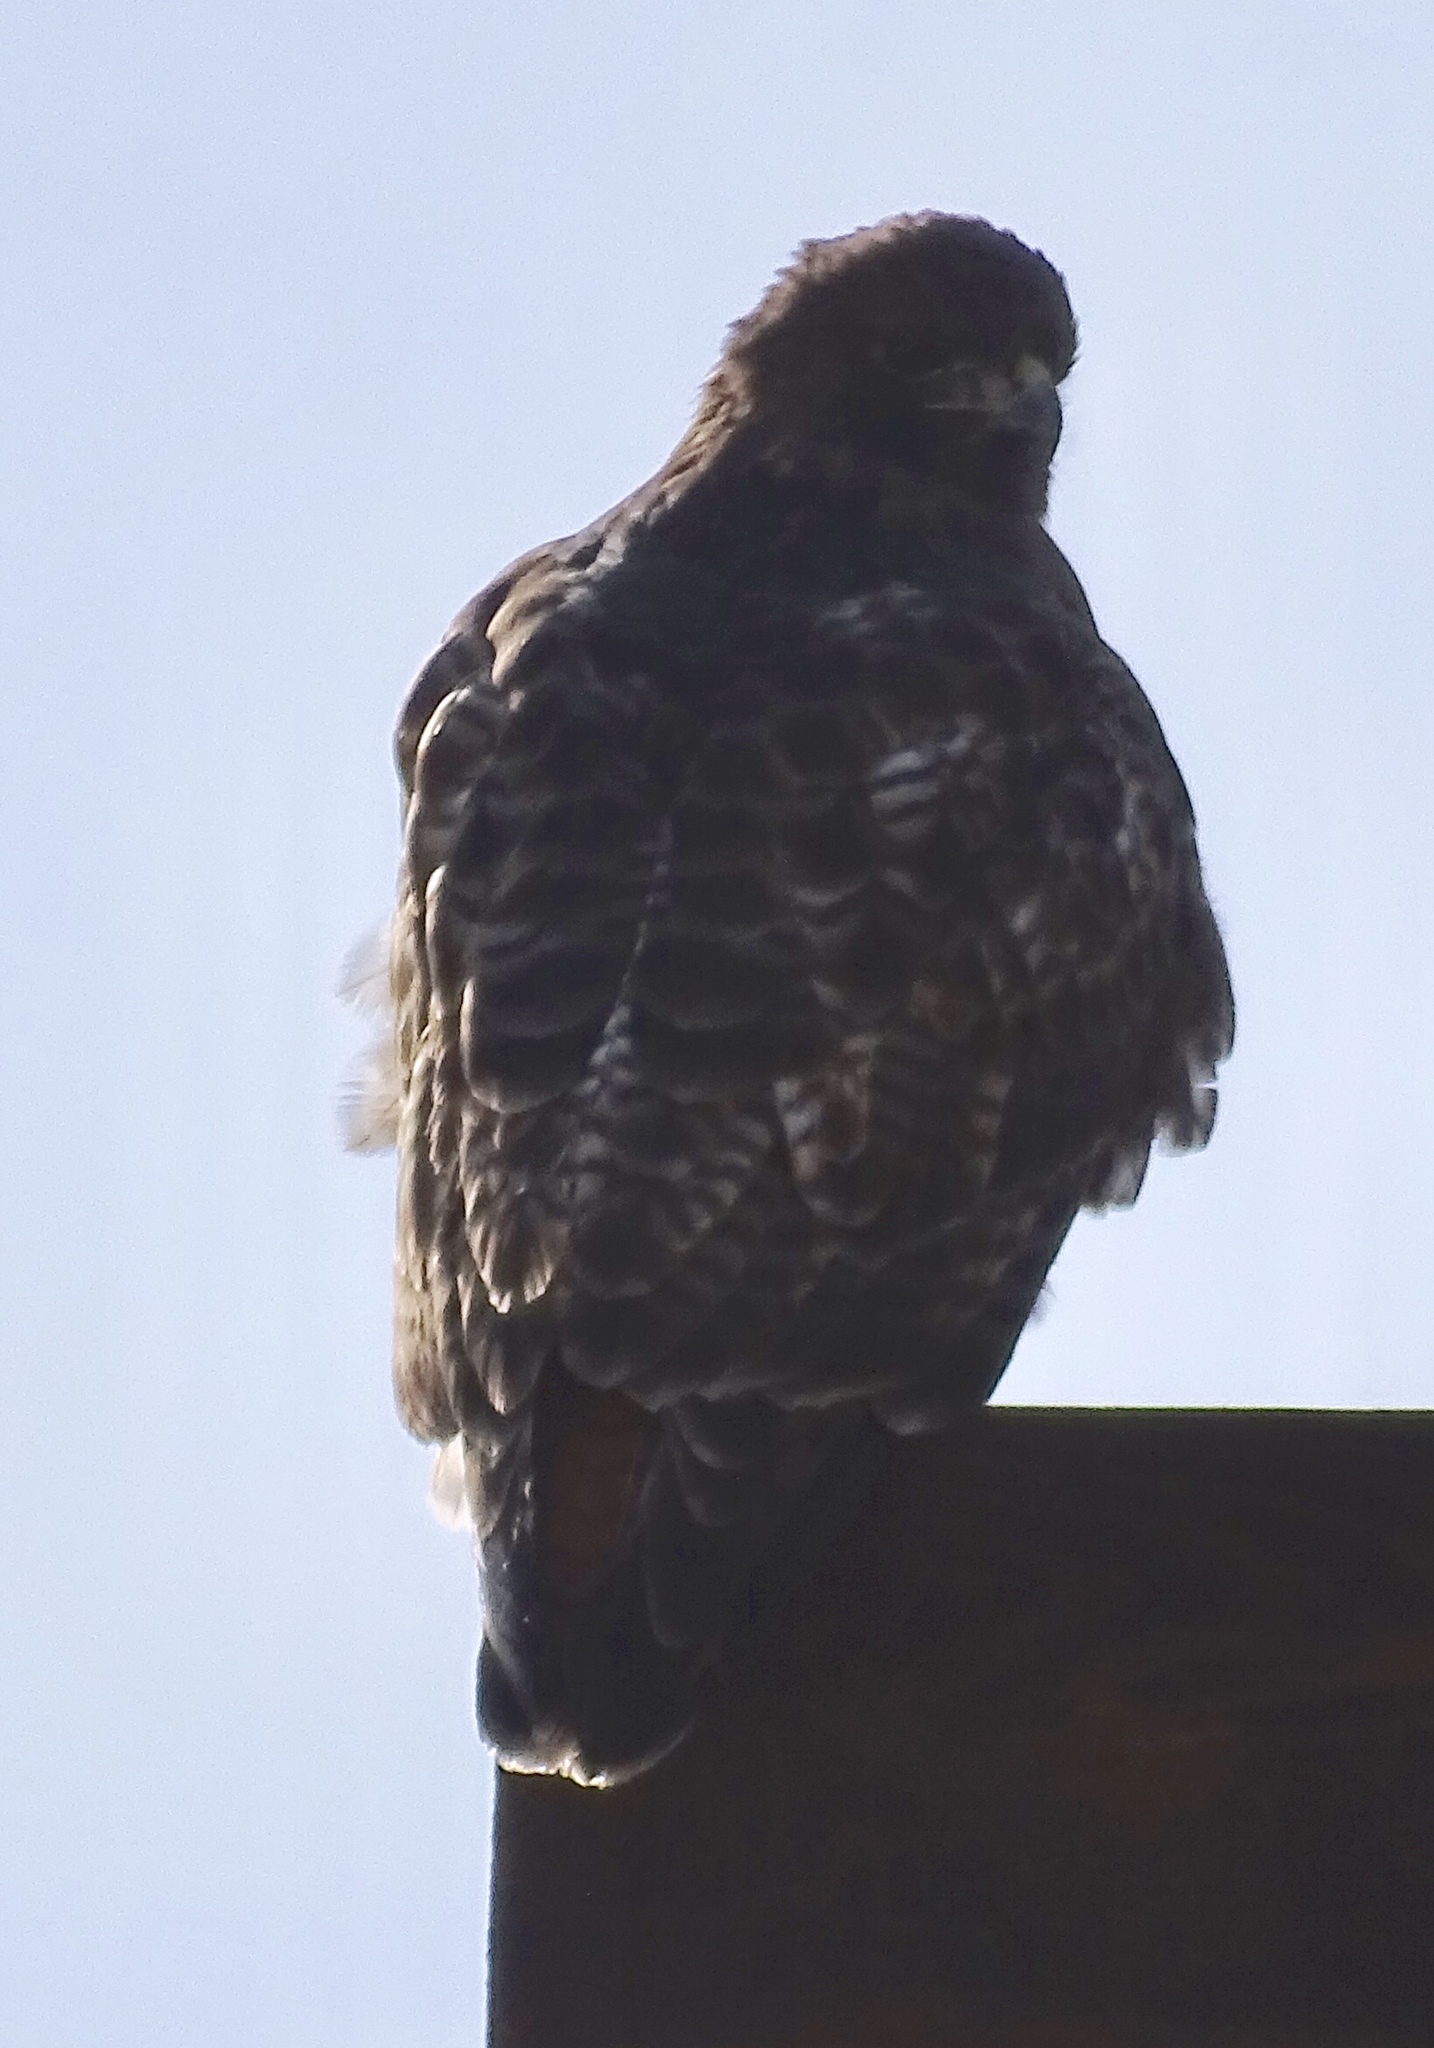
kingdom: Animalia
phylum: Chordata
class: Aves
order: Accipitriformes
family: Accipitridae
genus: Buteo
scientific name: Buteo jamaicensis
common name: Red-tailed hawk
